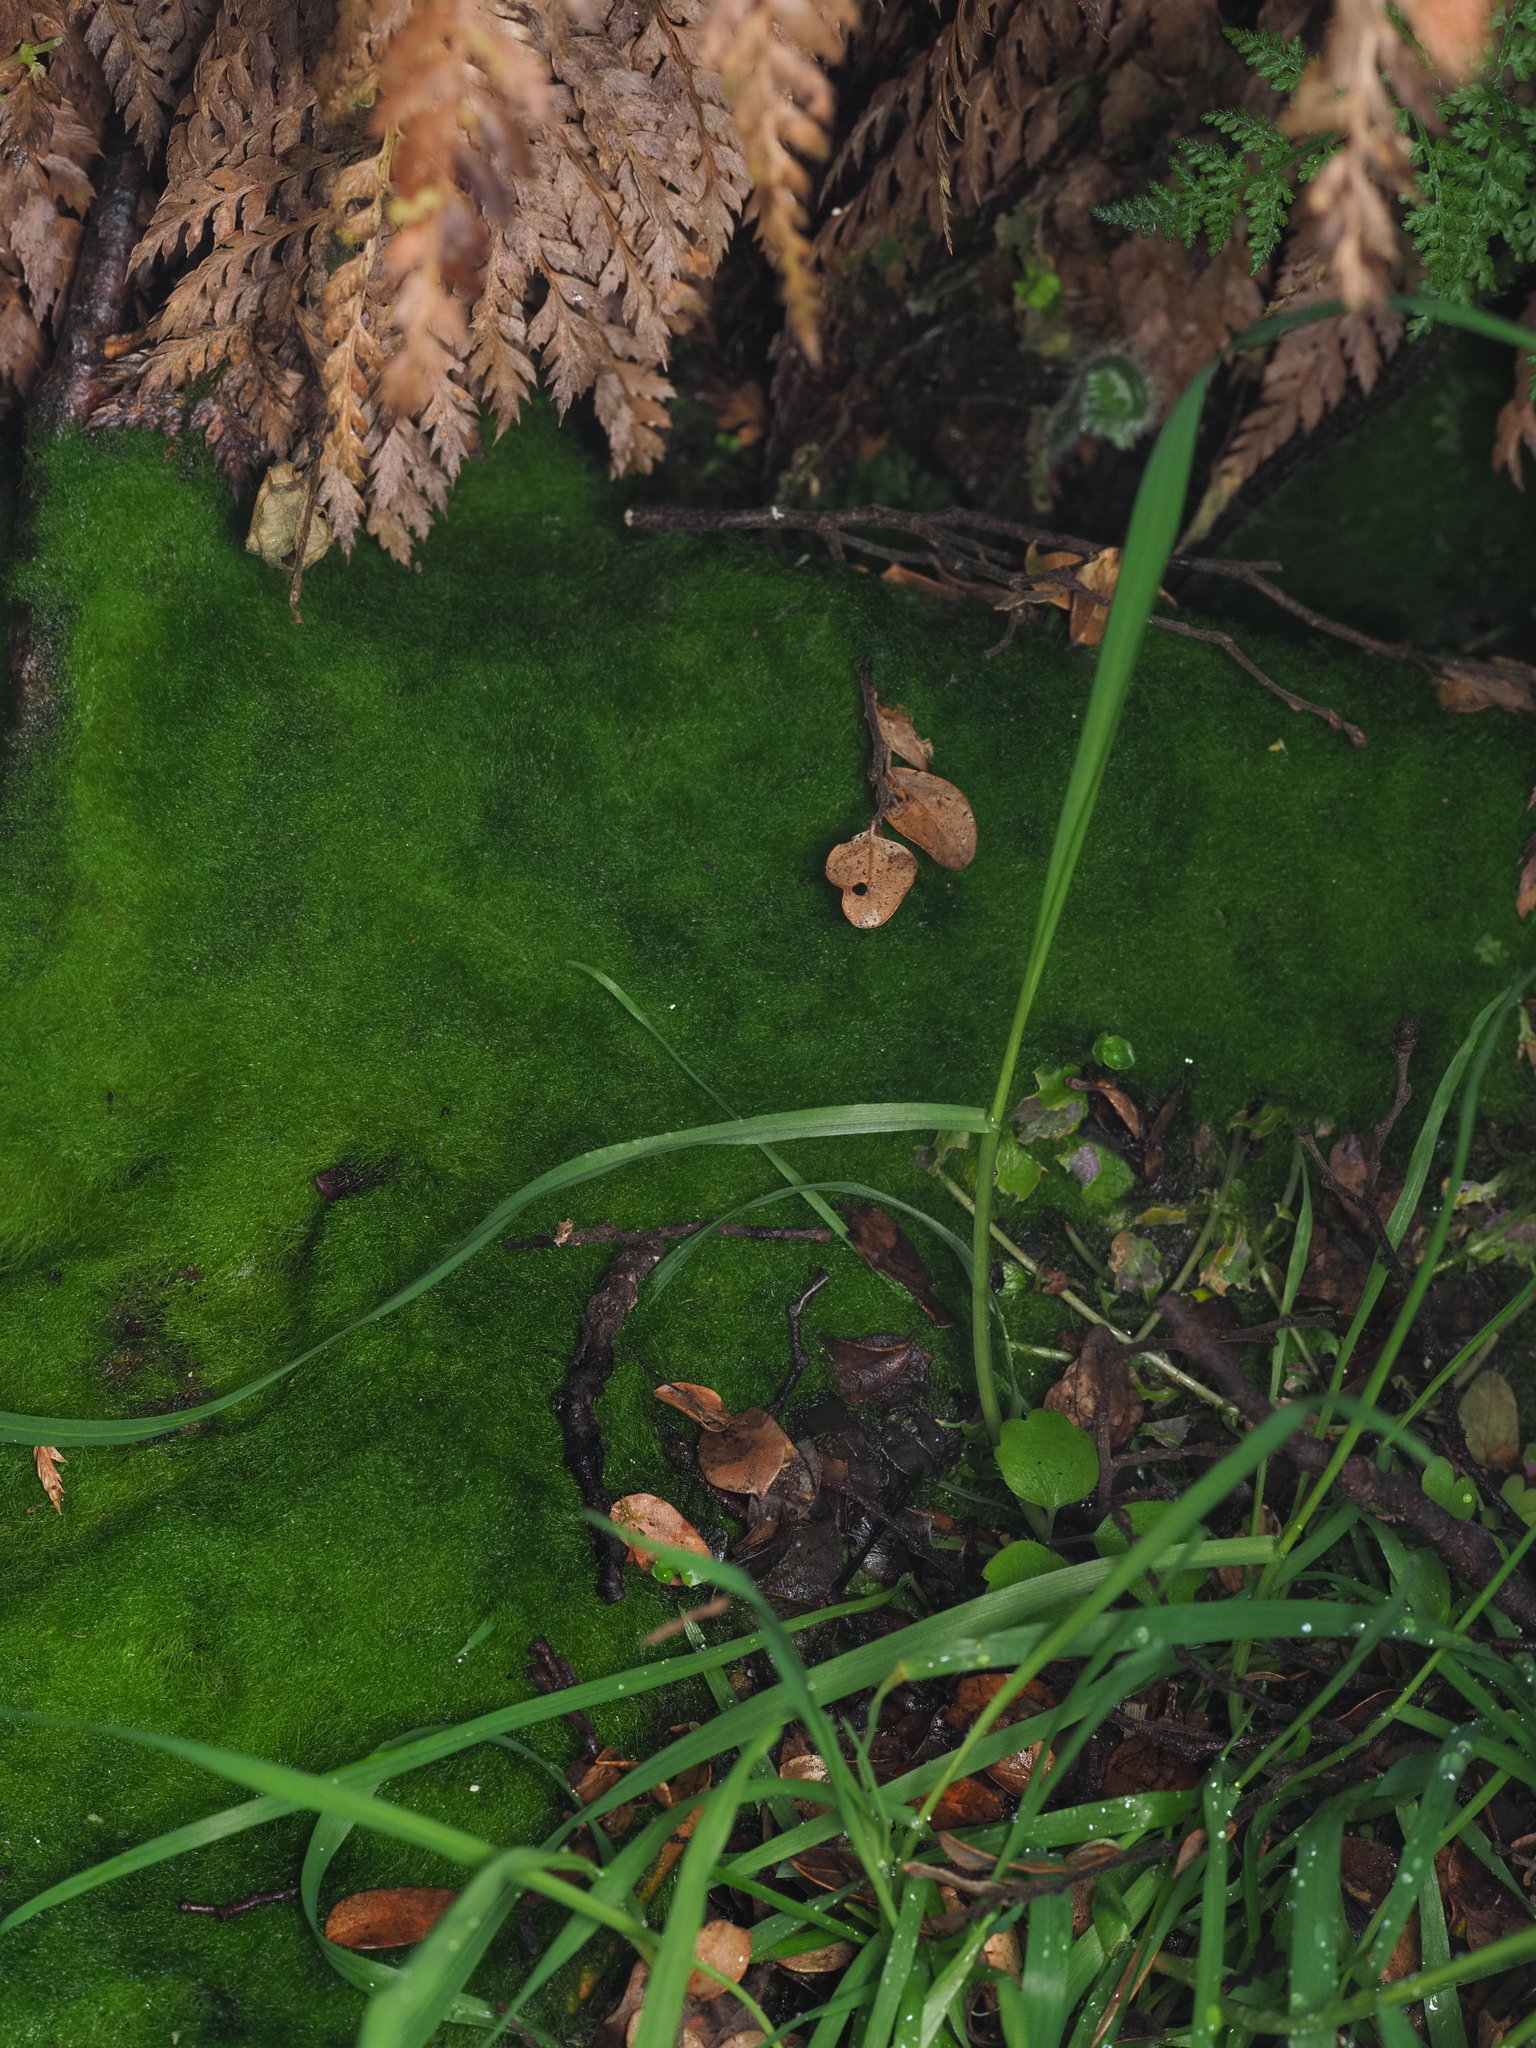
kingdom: Chromista
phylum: Ochrophyta
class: Xanthophyceae
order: Vaucheriales
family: Vaucheriaceae
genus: Vaucheria
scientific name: Vaucheria
